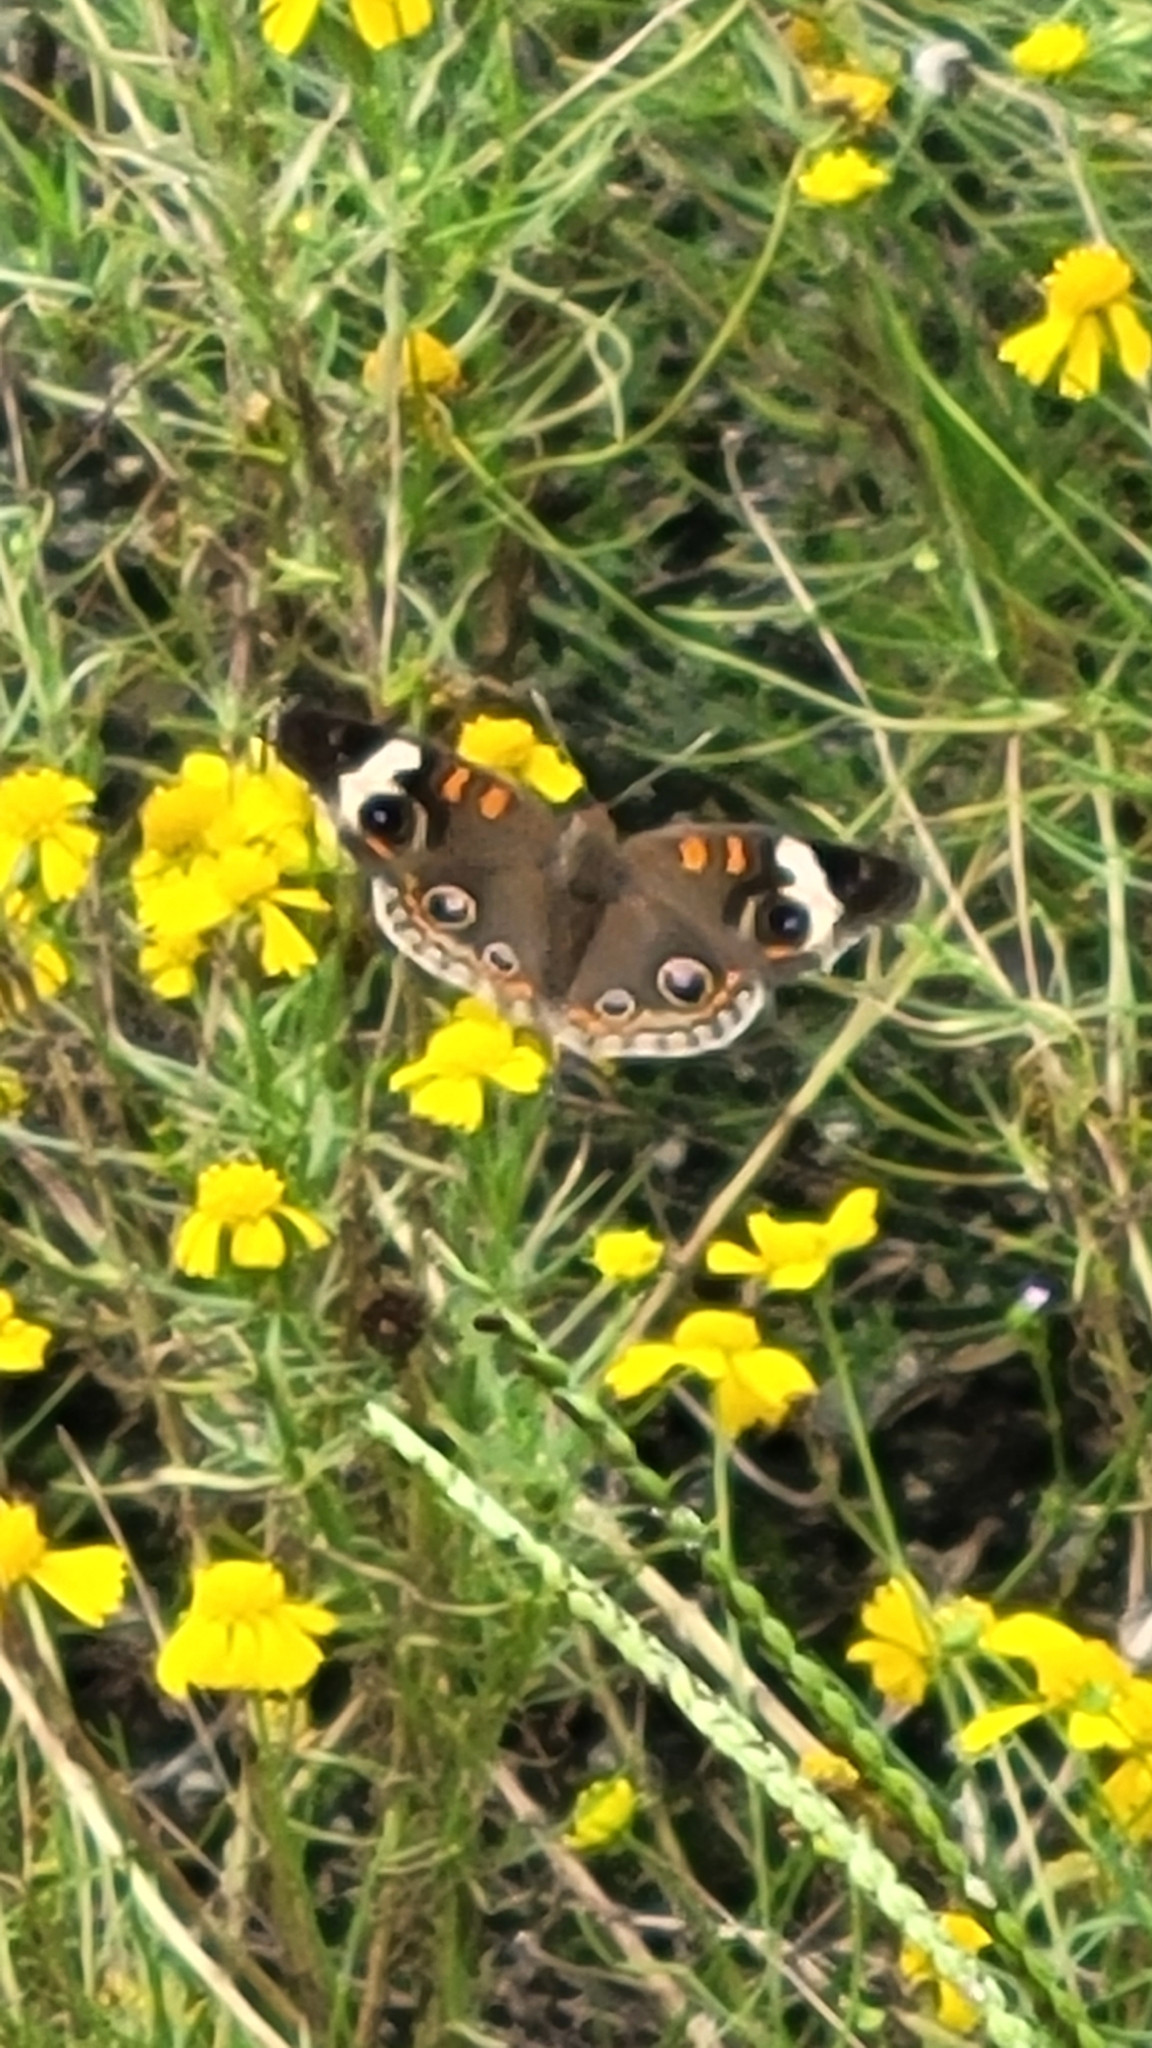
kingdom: Animalia
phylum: Arthropoda
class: Insecta
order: Lepidoptera
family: Nymphalidae
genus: Junonia
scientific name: Junonia coenia
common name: Common buckeye
